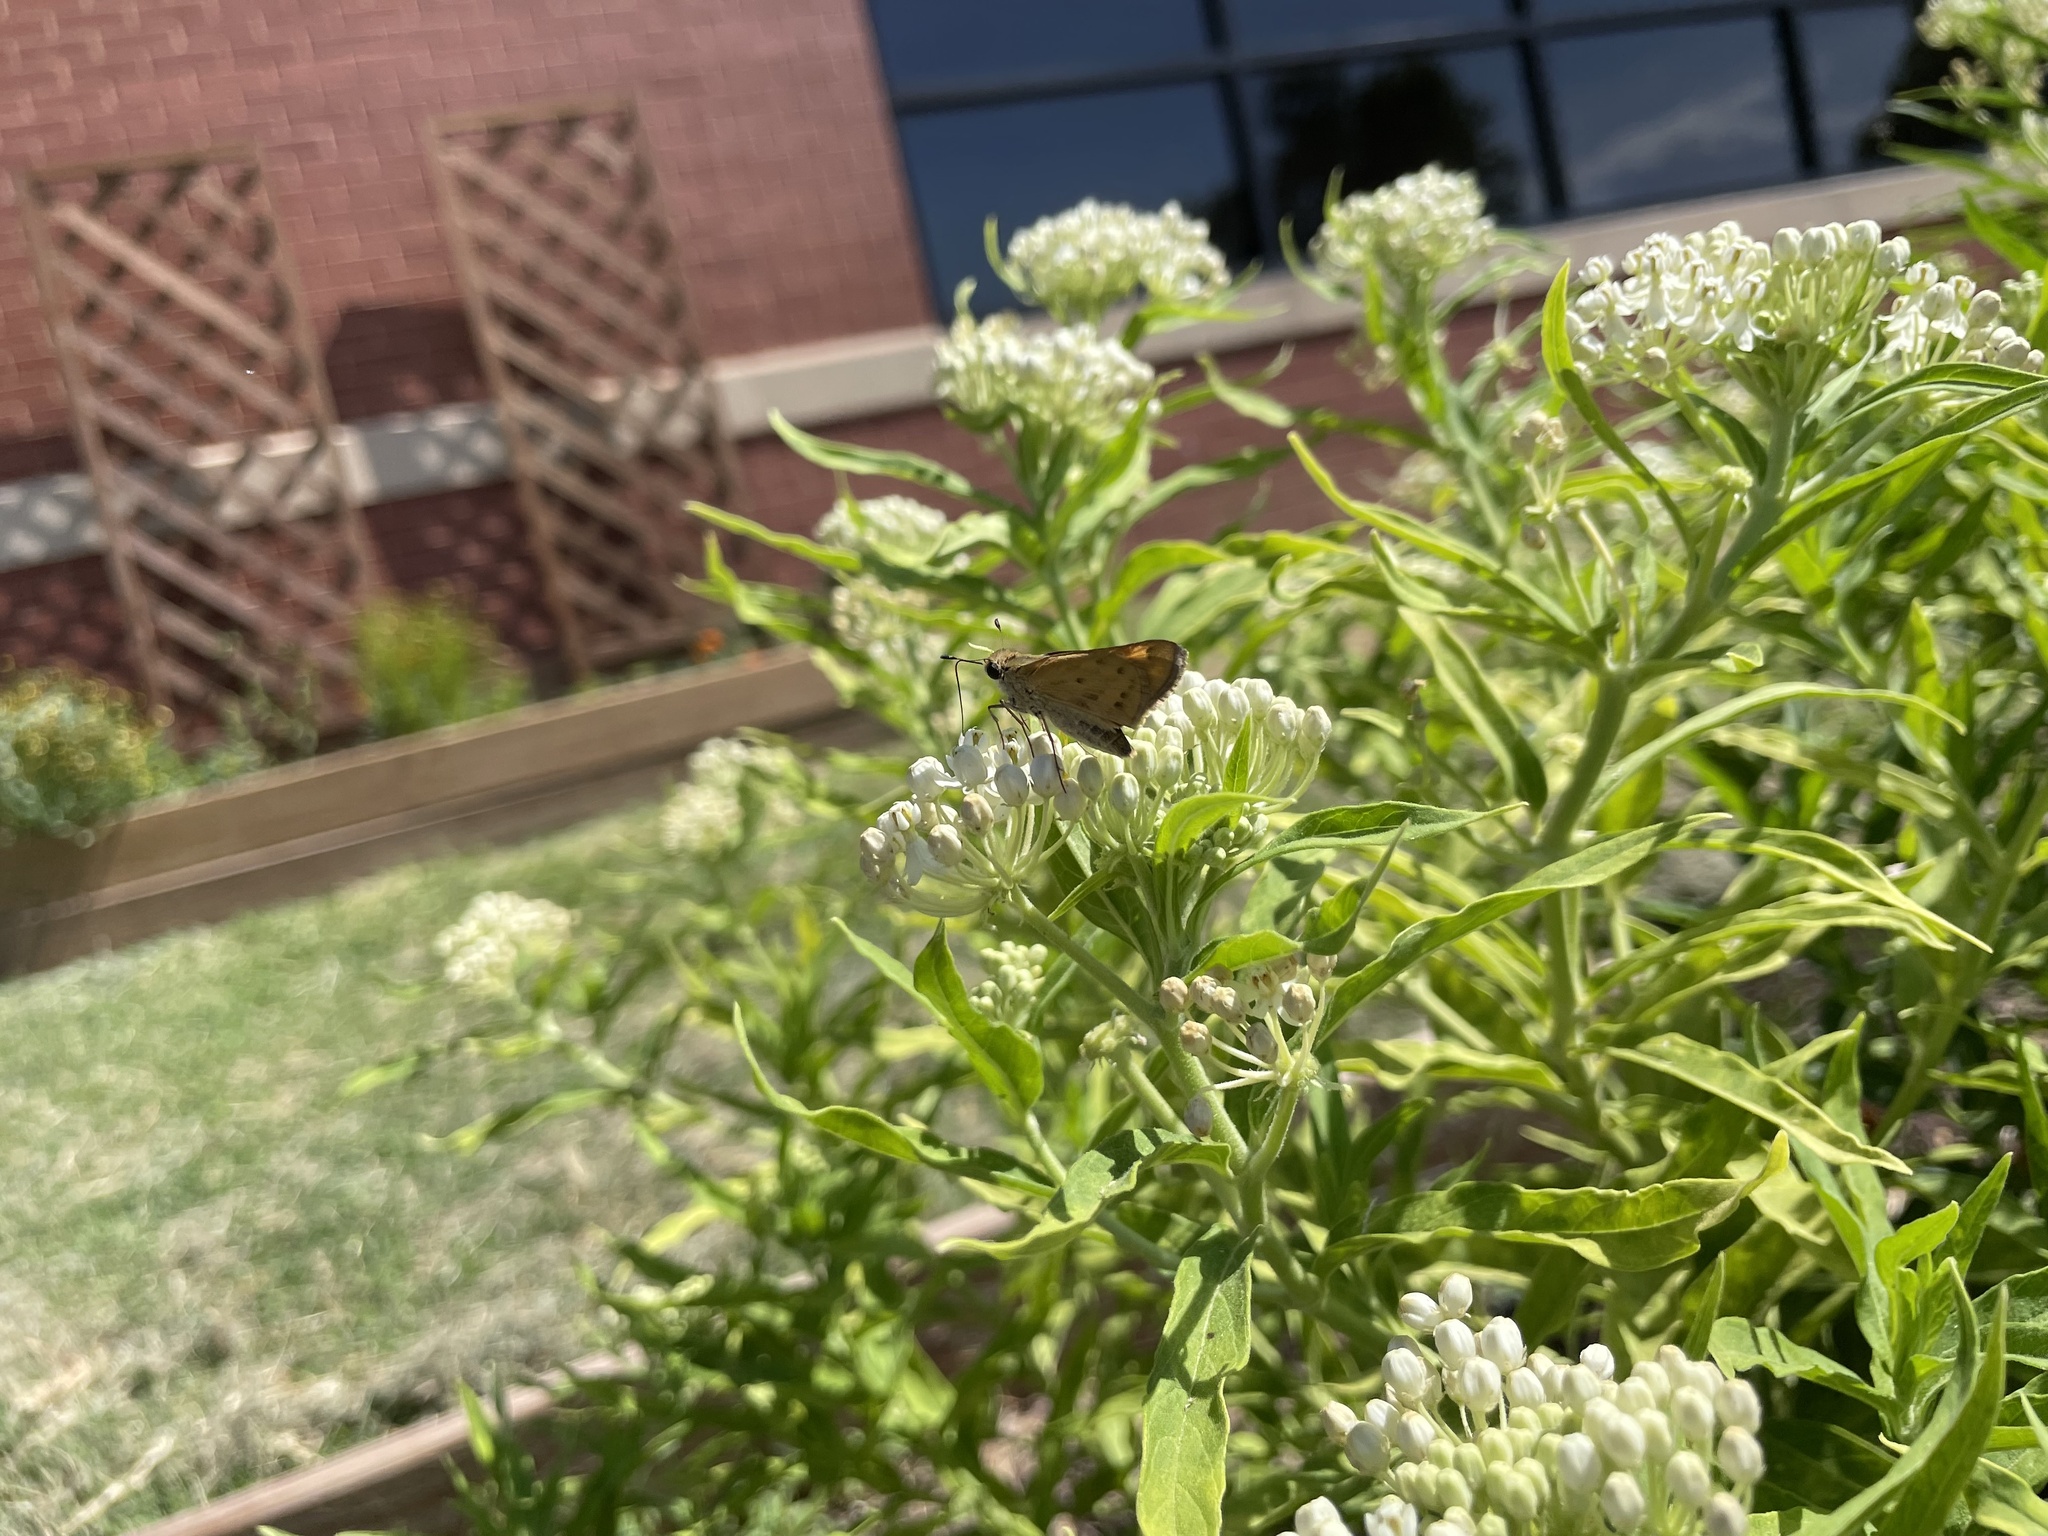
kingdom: Animalia
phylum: Arthropoda
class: Insecta
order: Lepidoptera
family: Hesperiidae
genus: Hylephila
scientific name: Hylephila phyleus
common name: Fiery skipper
